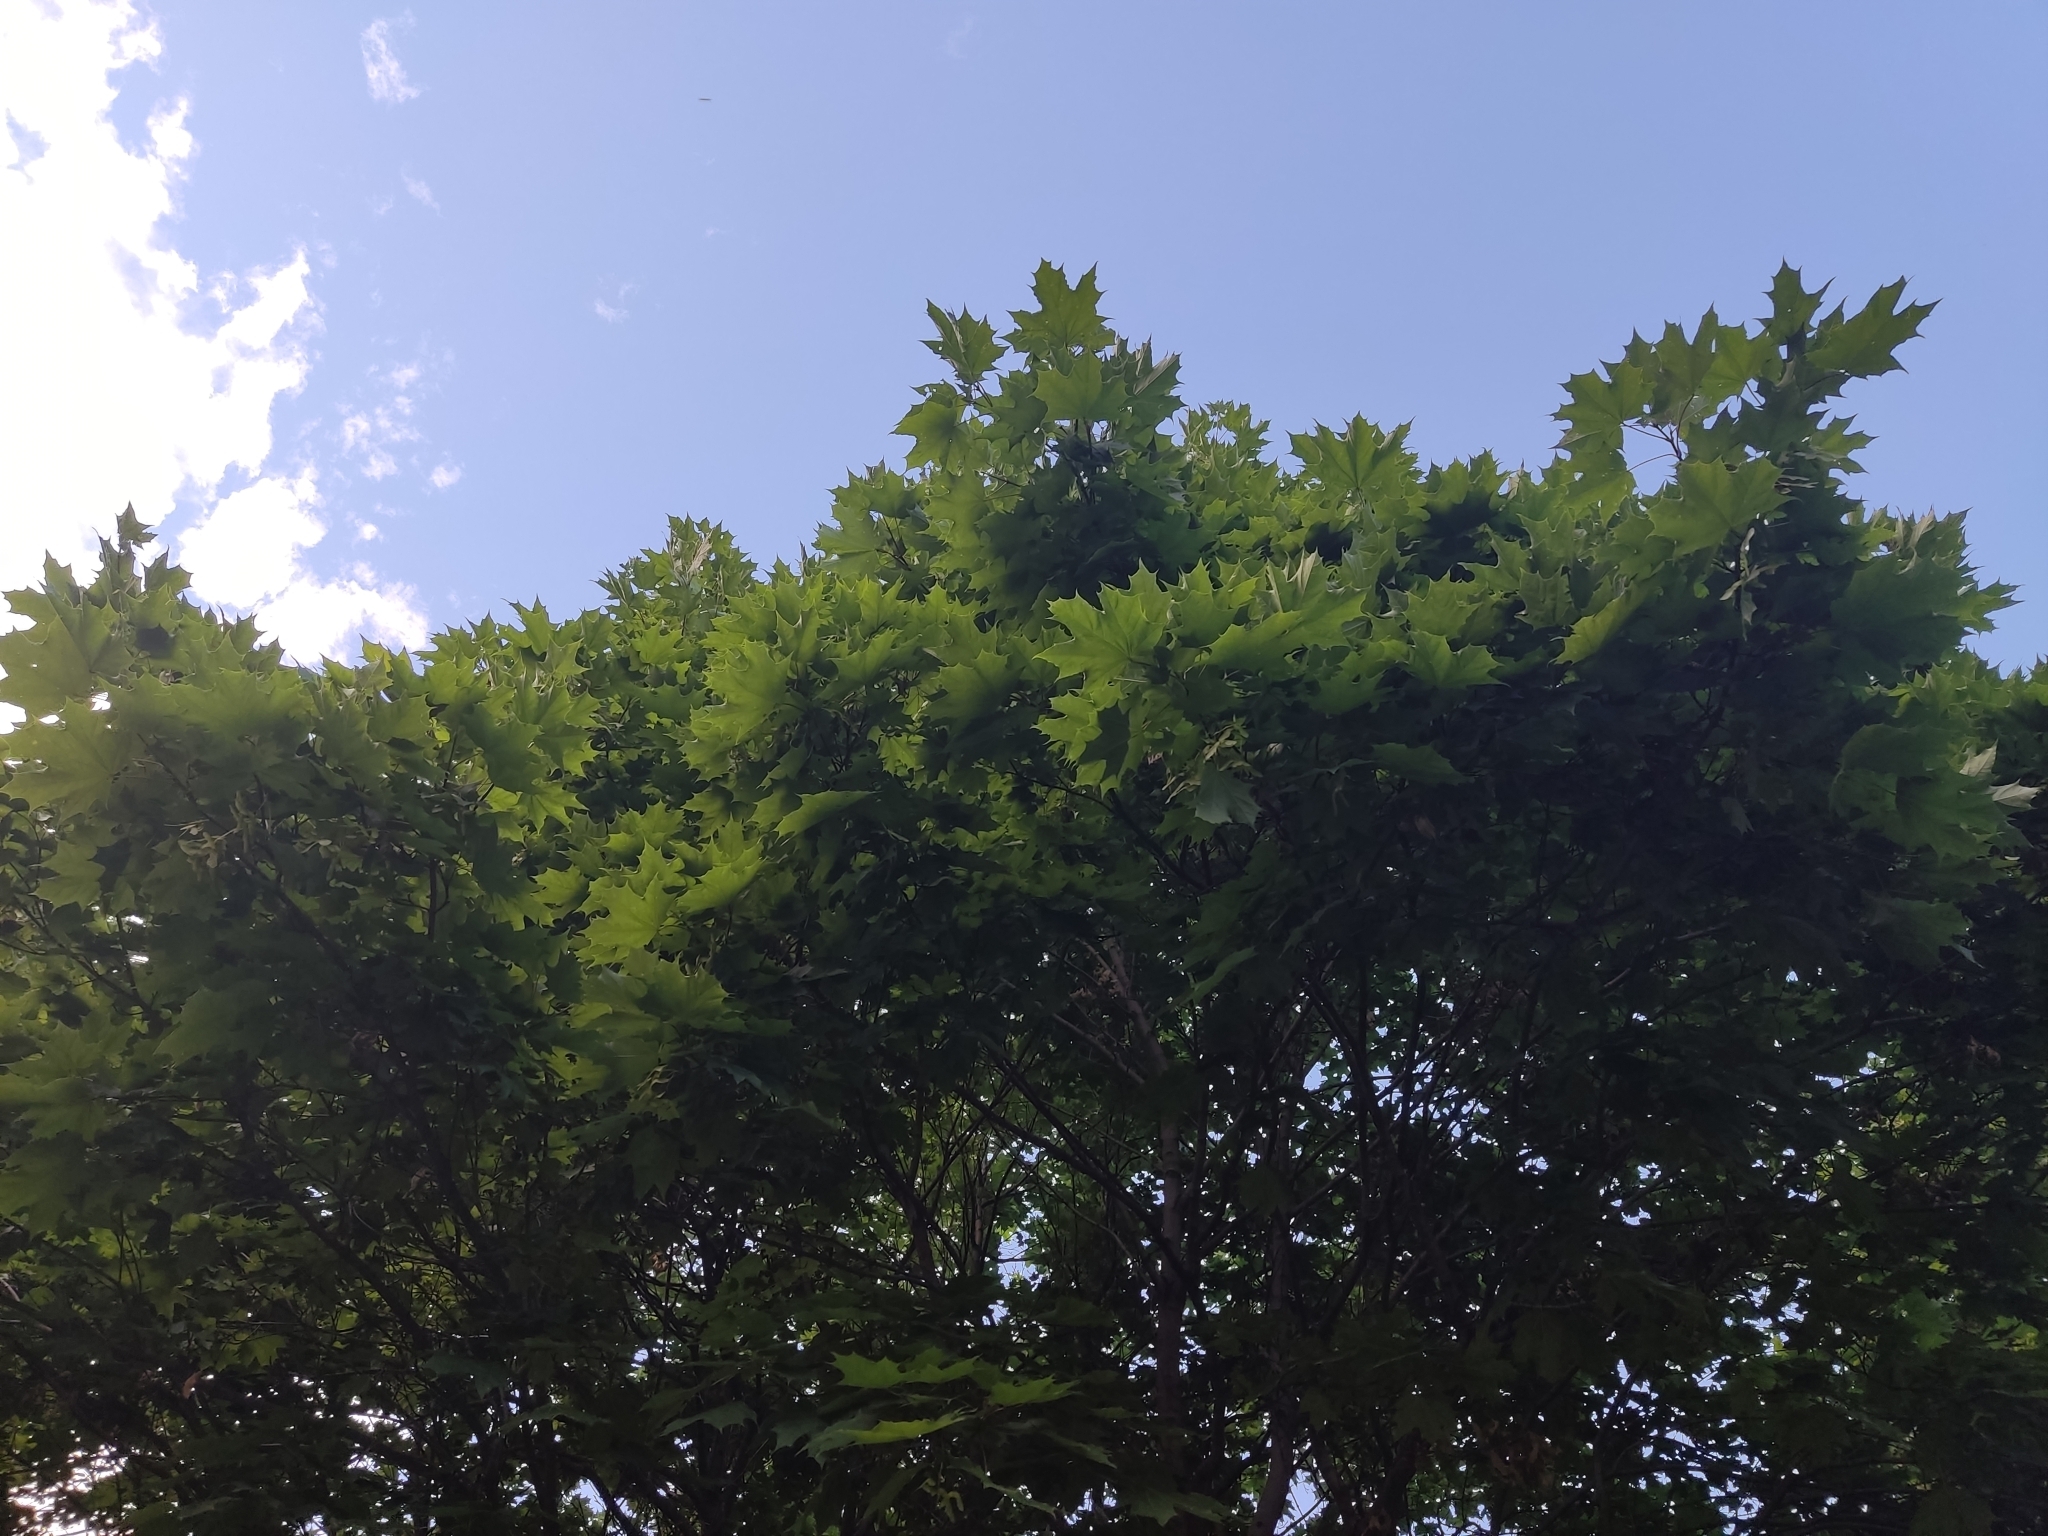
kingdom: Plantae
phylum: Tracheophyta
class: Magnoliopsida
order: Sapindales
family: Sapindaceae
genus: Acer
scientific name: Acer platanoides
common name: Norway maple
